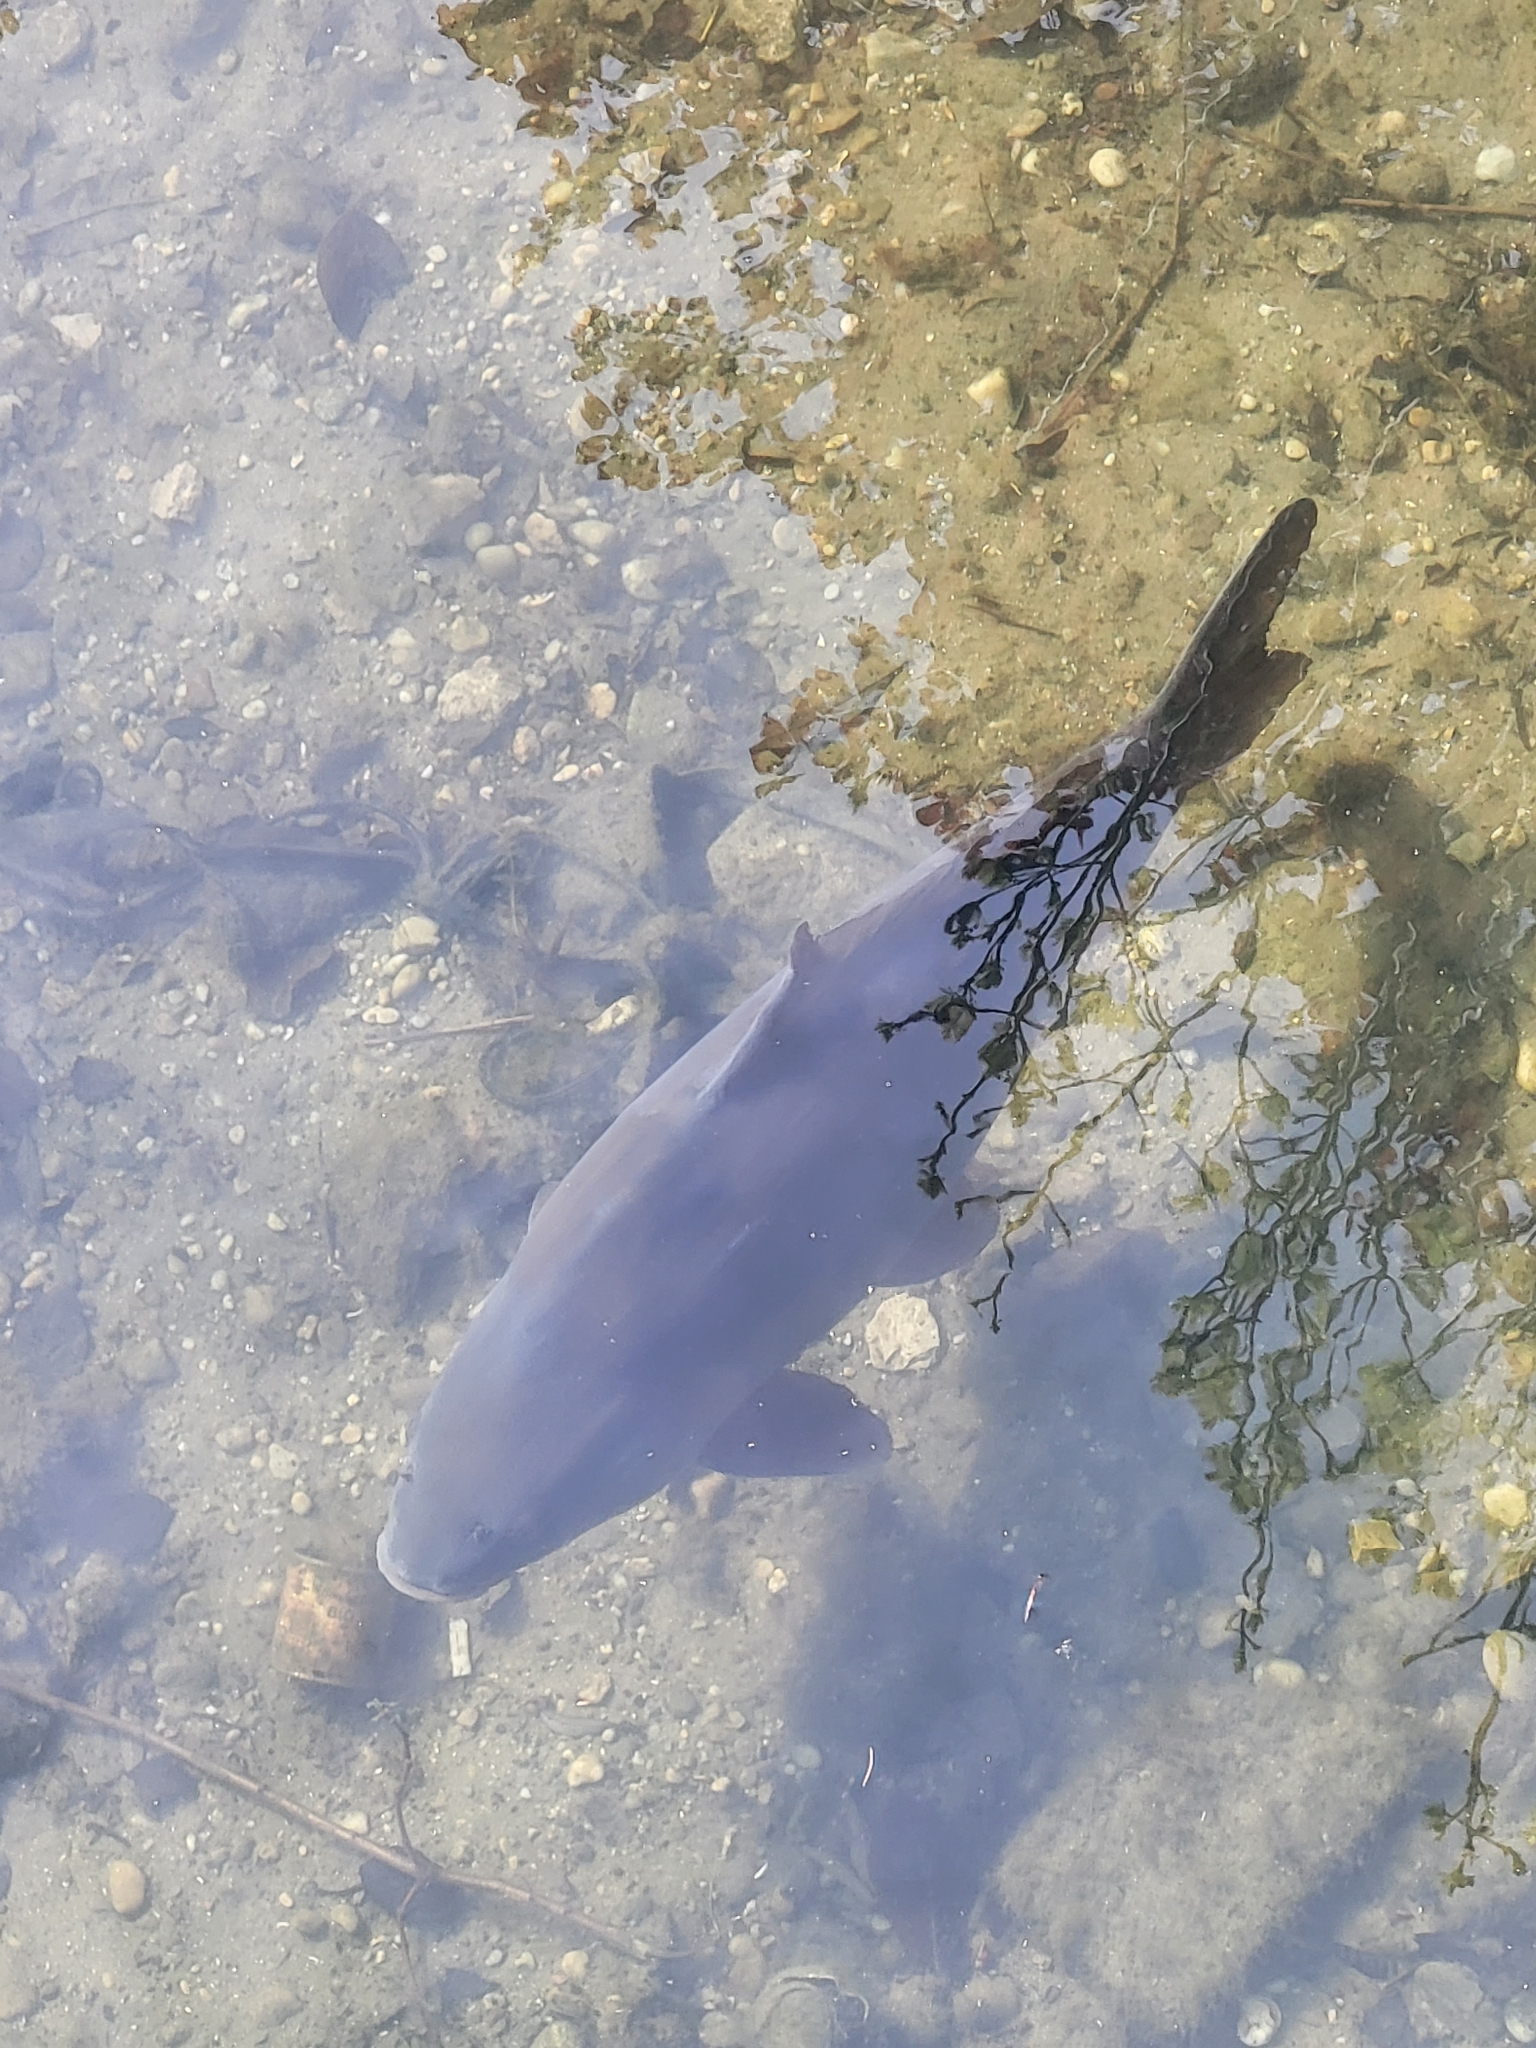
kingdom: Animalia
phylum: Chordata
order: Cypriniformes
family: Cyprinidae
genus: Cyprinus
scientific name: Cyprinus carpio
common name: Common carp
